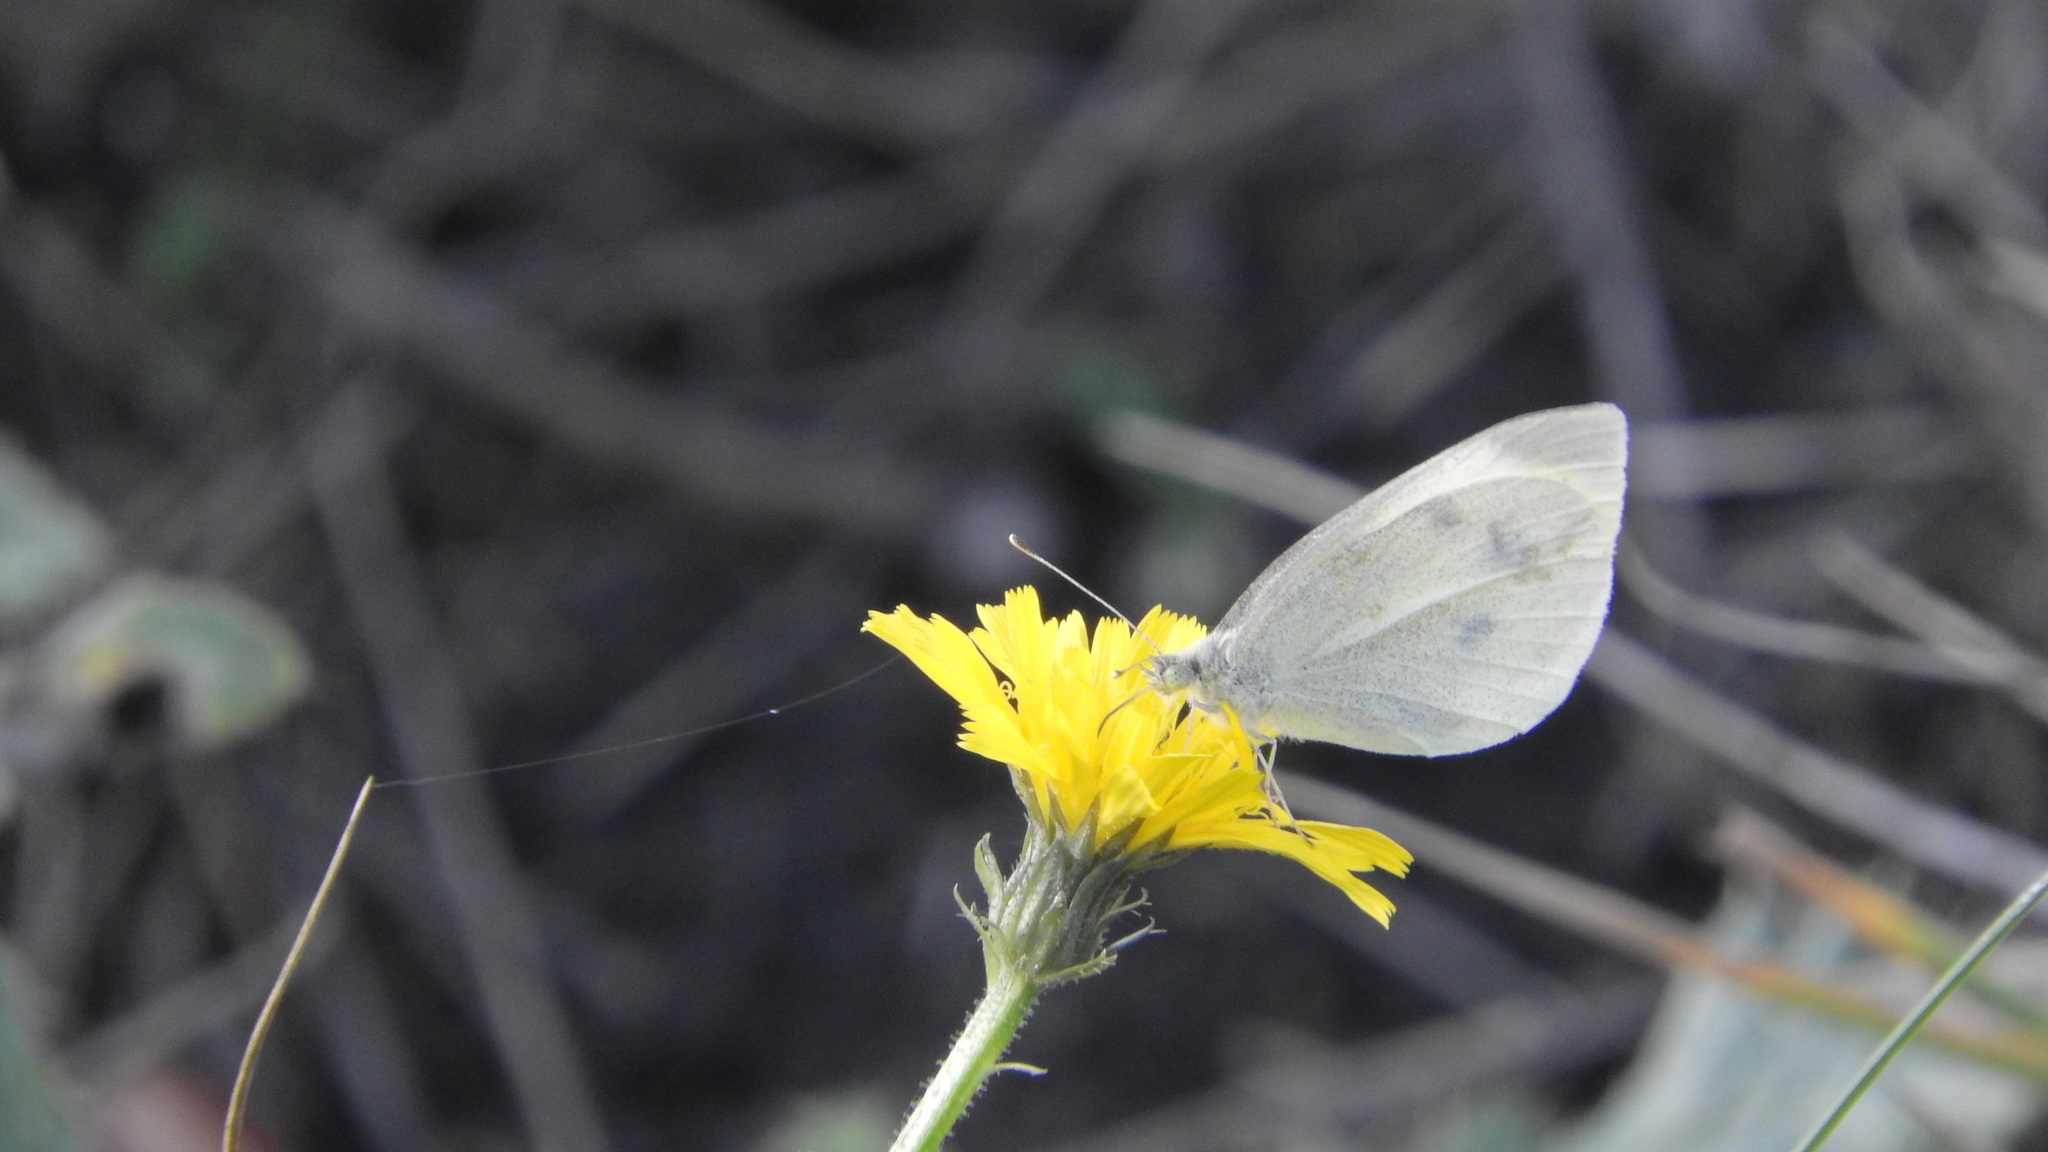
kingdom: Animalia
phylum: Arthropoda
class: Insecta
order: Lepidoptera
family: Pieridae
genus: Pieris
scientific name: Pieris rapae
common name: Small white
